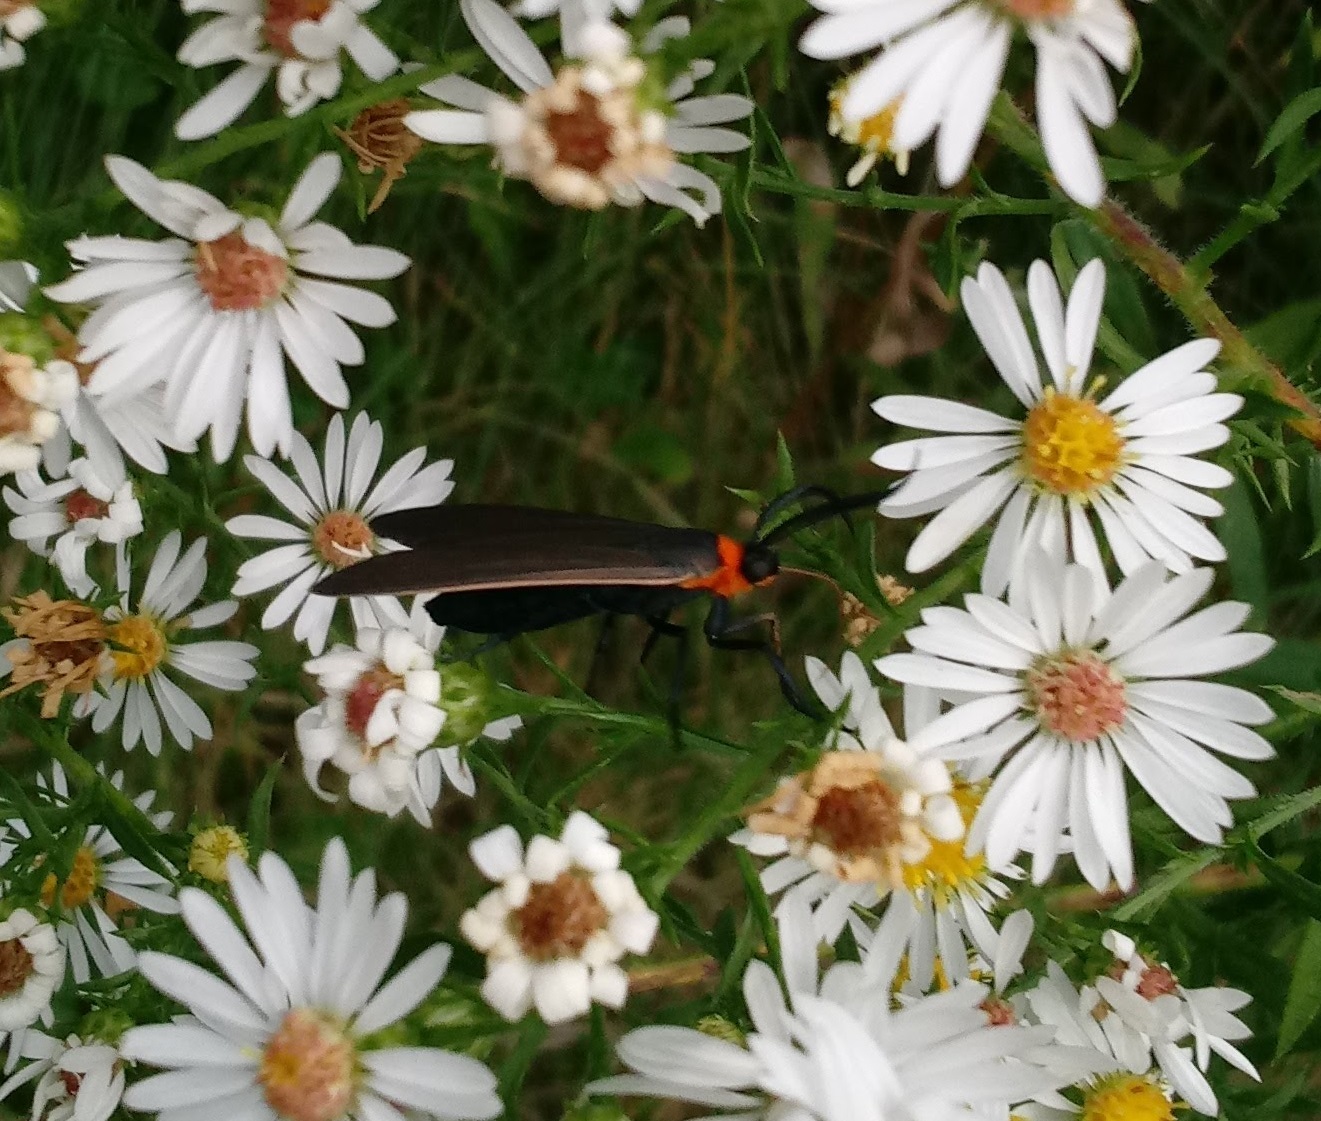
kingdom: Animalia
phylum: Arthropoda
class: Insecta
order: Lepidoptera
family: Erebidae
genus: Cisseps
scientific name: Cisseps fulvicollis
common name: Yellow-collared scape moth
